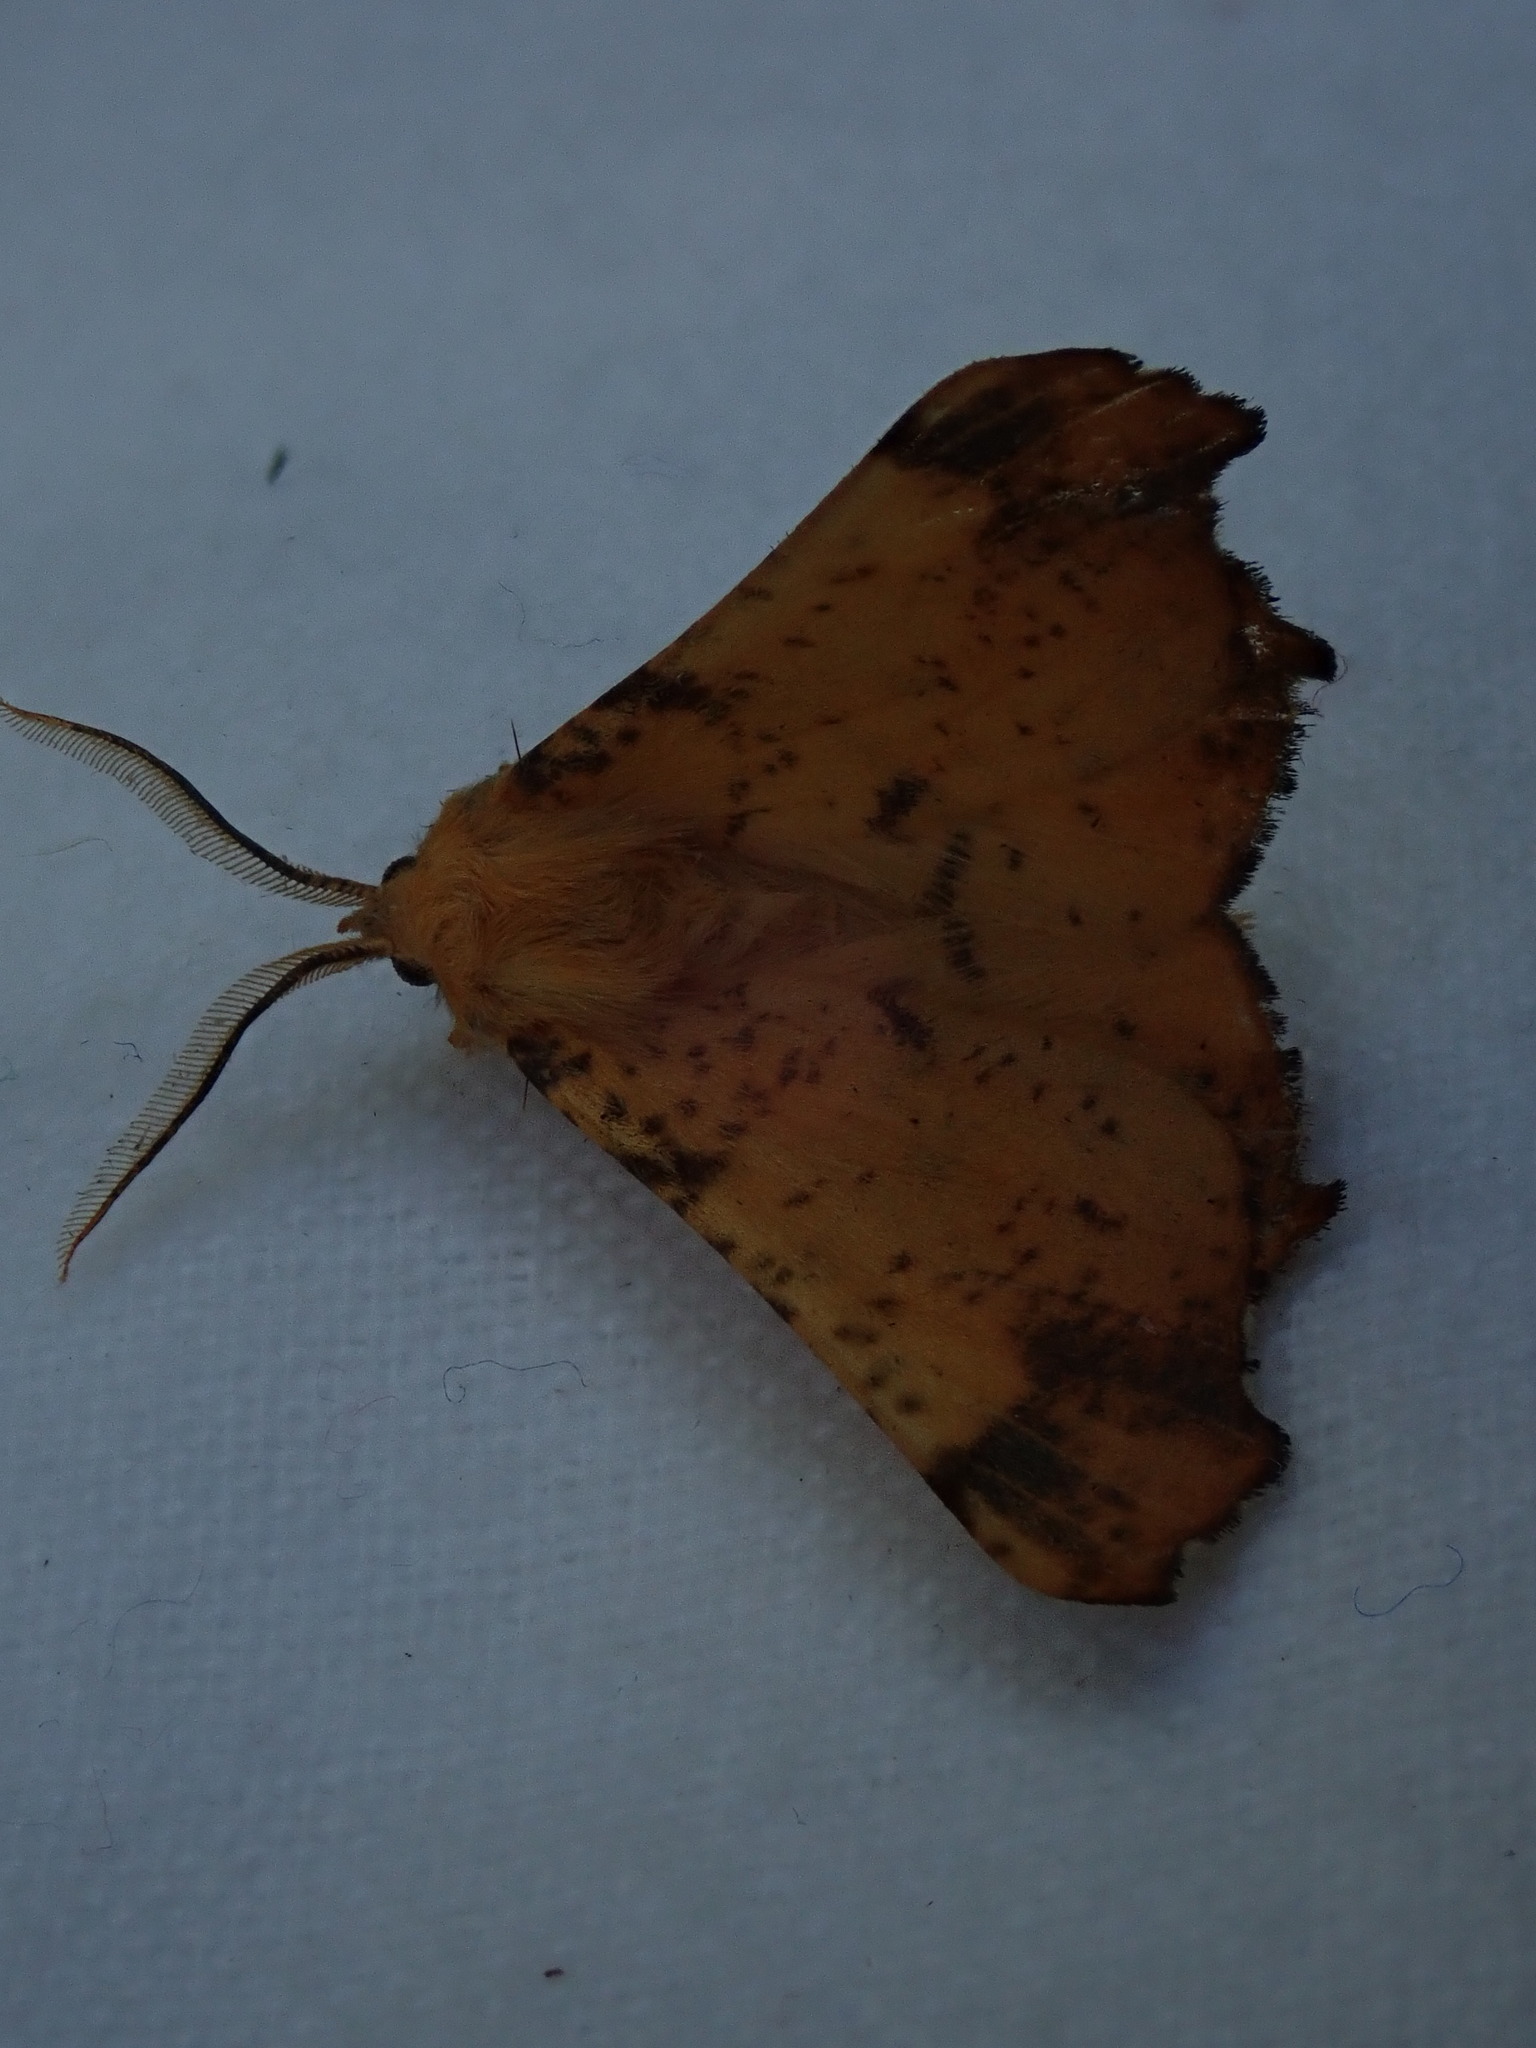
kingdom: Animalia
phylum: Arthropoda
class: Insecta
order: Lepidoptera
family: Geometridae
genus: Ennomos
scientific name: Ennomos magnaria
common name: Maple spanworm
